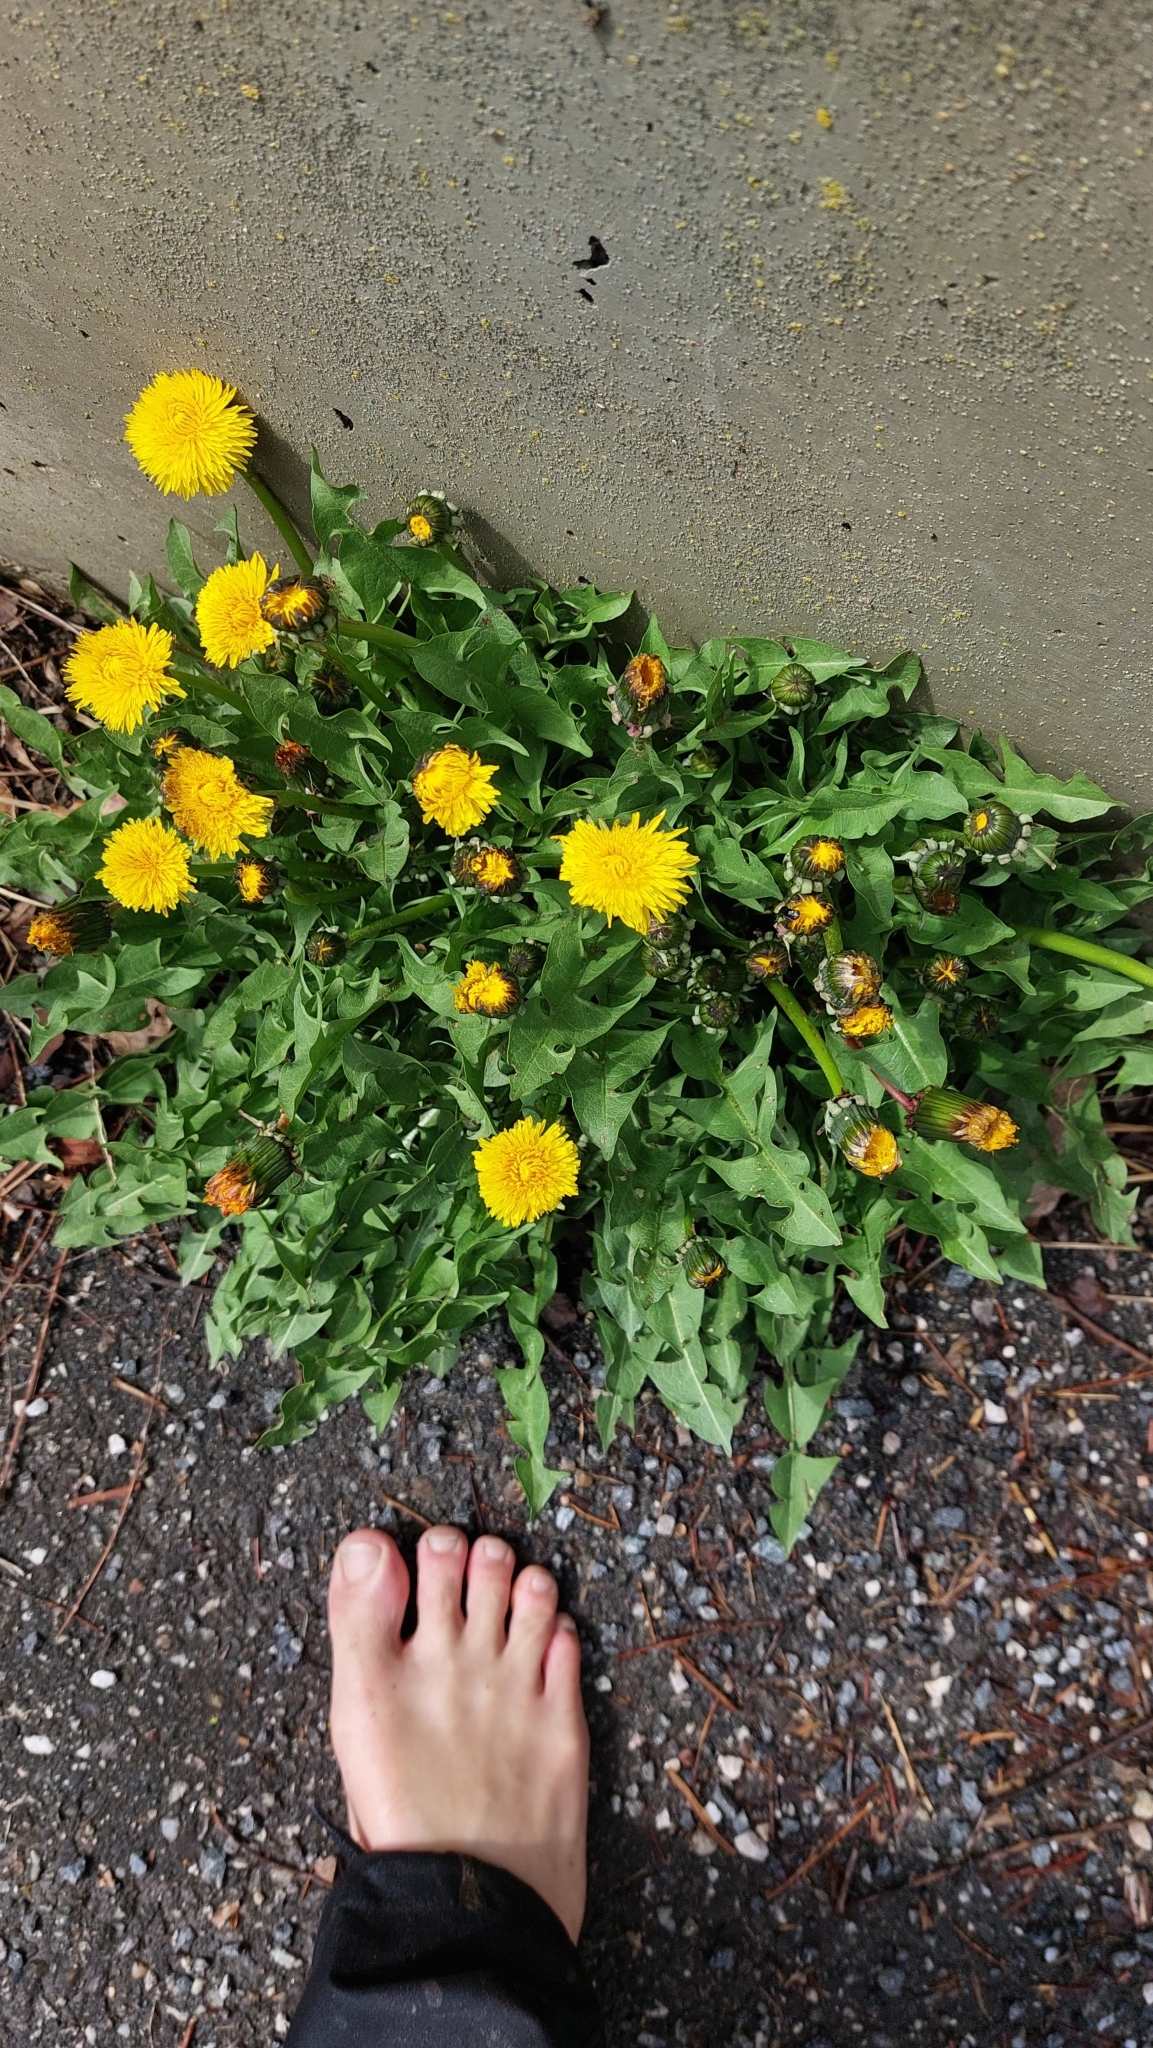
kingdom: Plantae
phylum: Tracheophyta
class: Magnoliopsida
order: Asterales
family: Asteraceae
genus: Taraxacum
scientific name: Taraxacum
